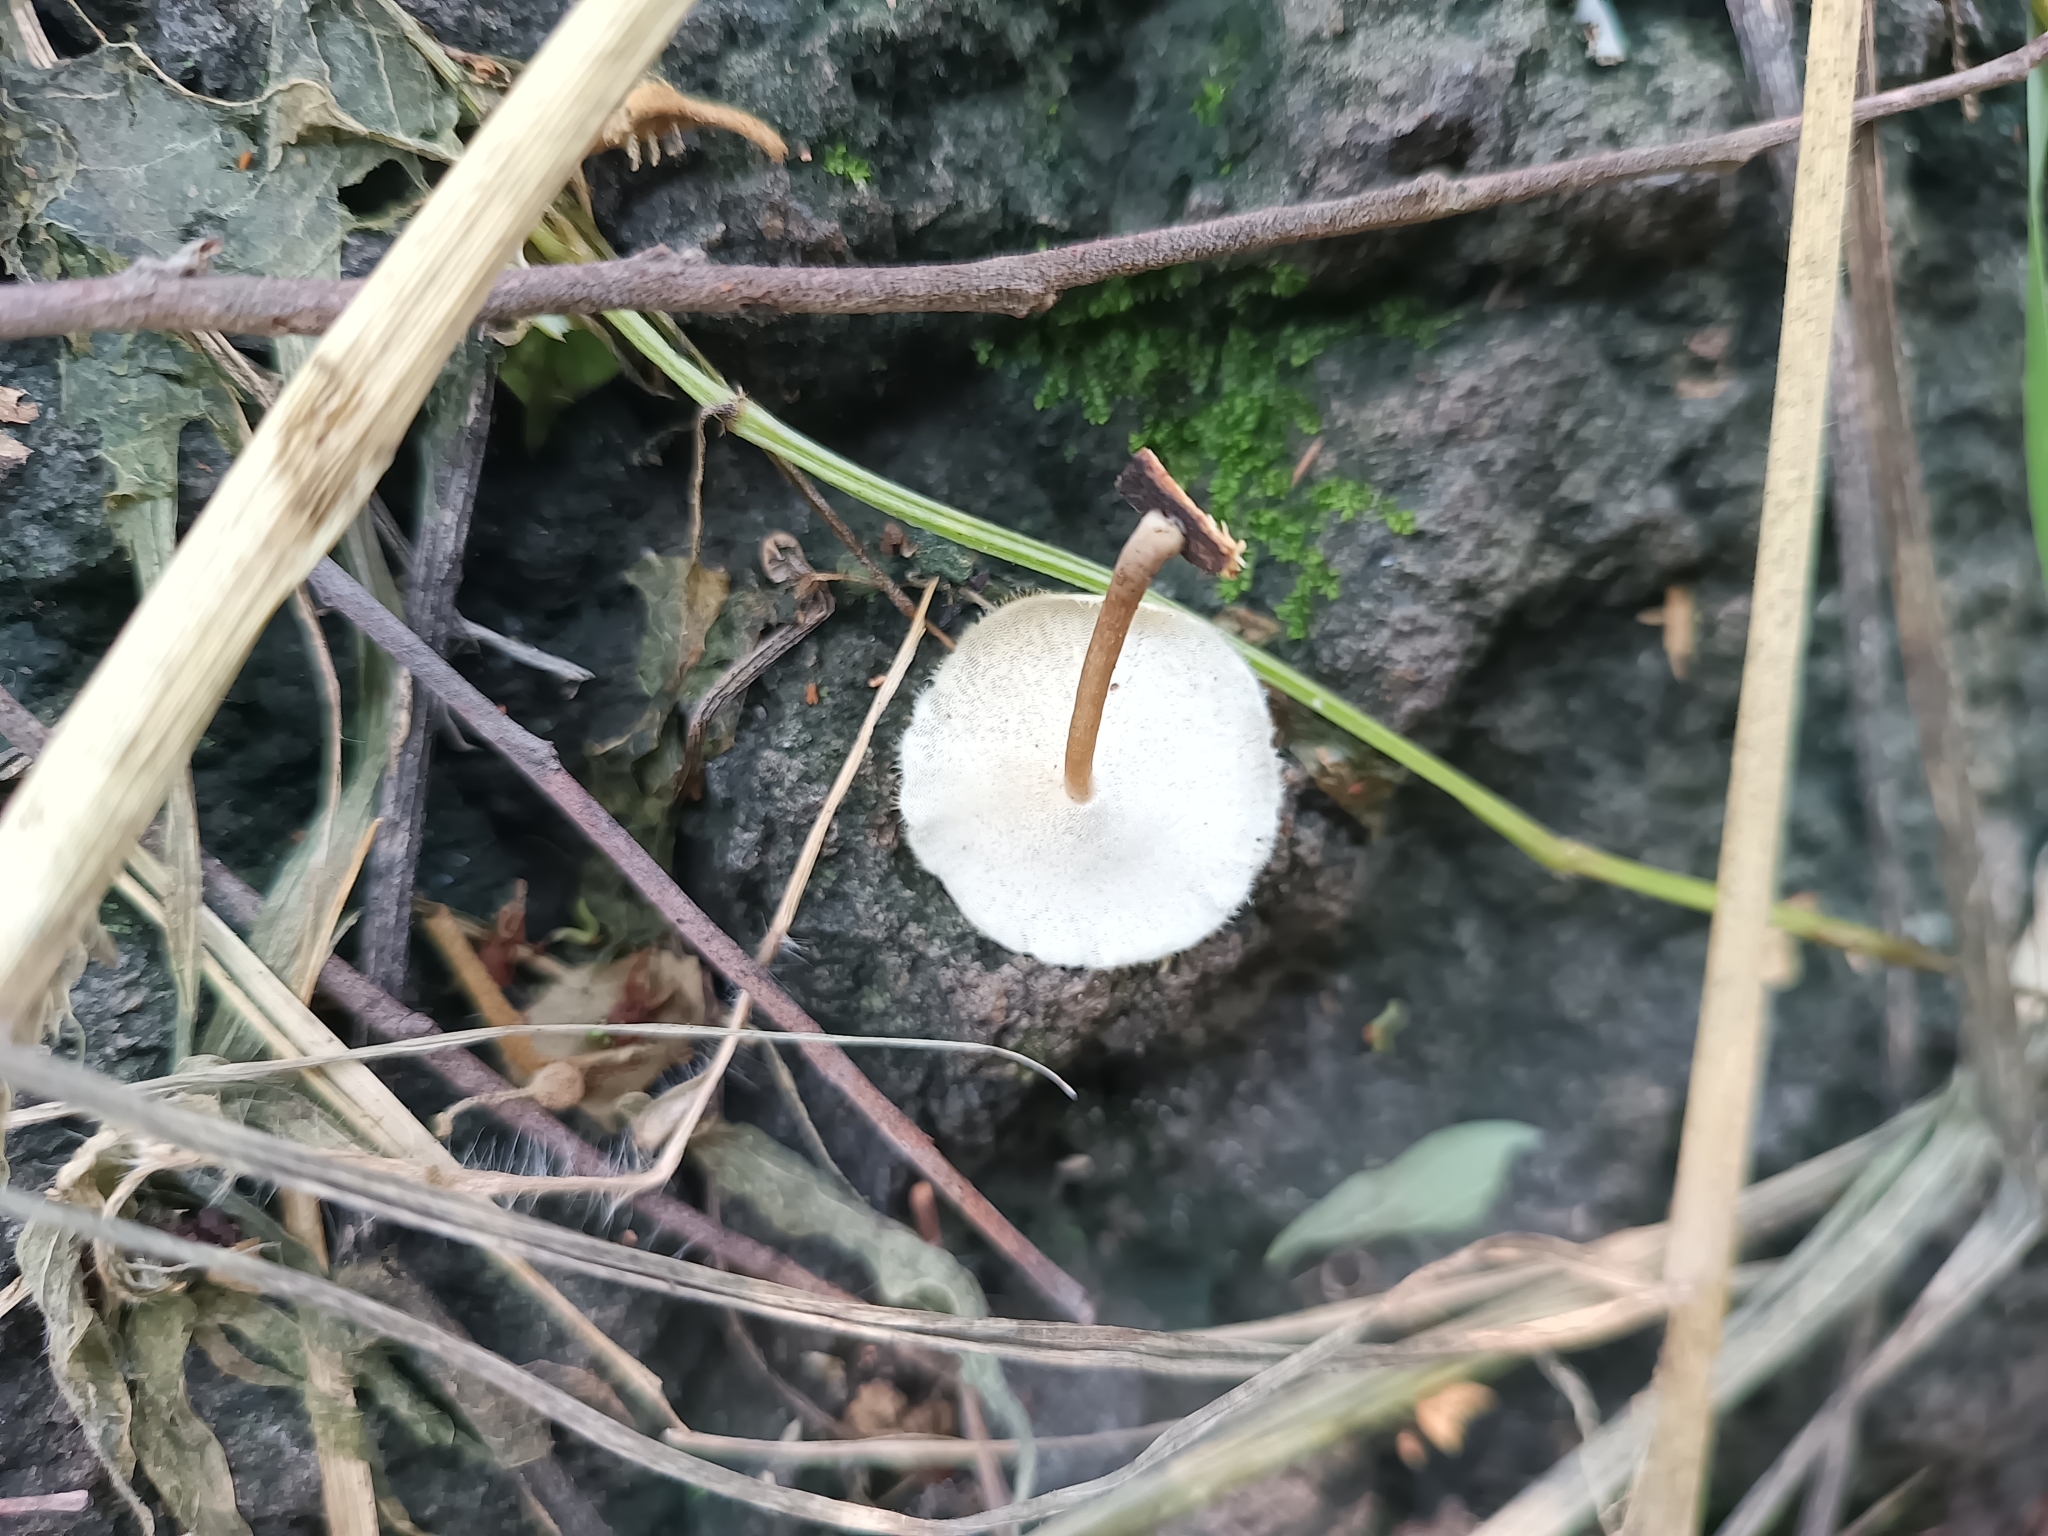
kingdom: Fungi
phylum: Basidiomycota
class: Agaricomycetes
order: Polyporales
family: Polyporaceae
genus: Lentinus
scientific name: Lentinus flexipes
